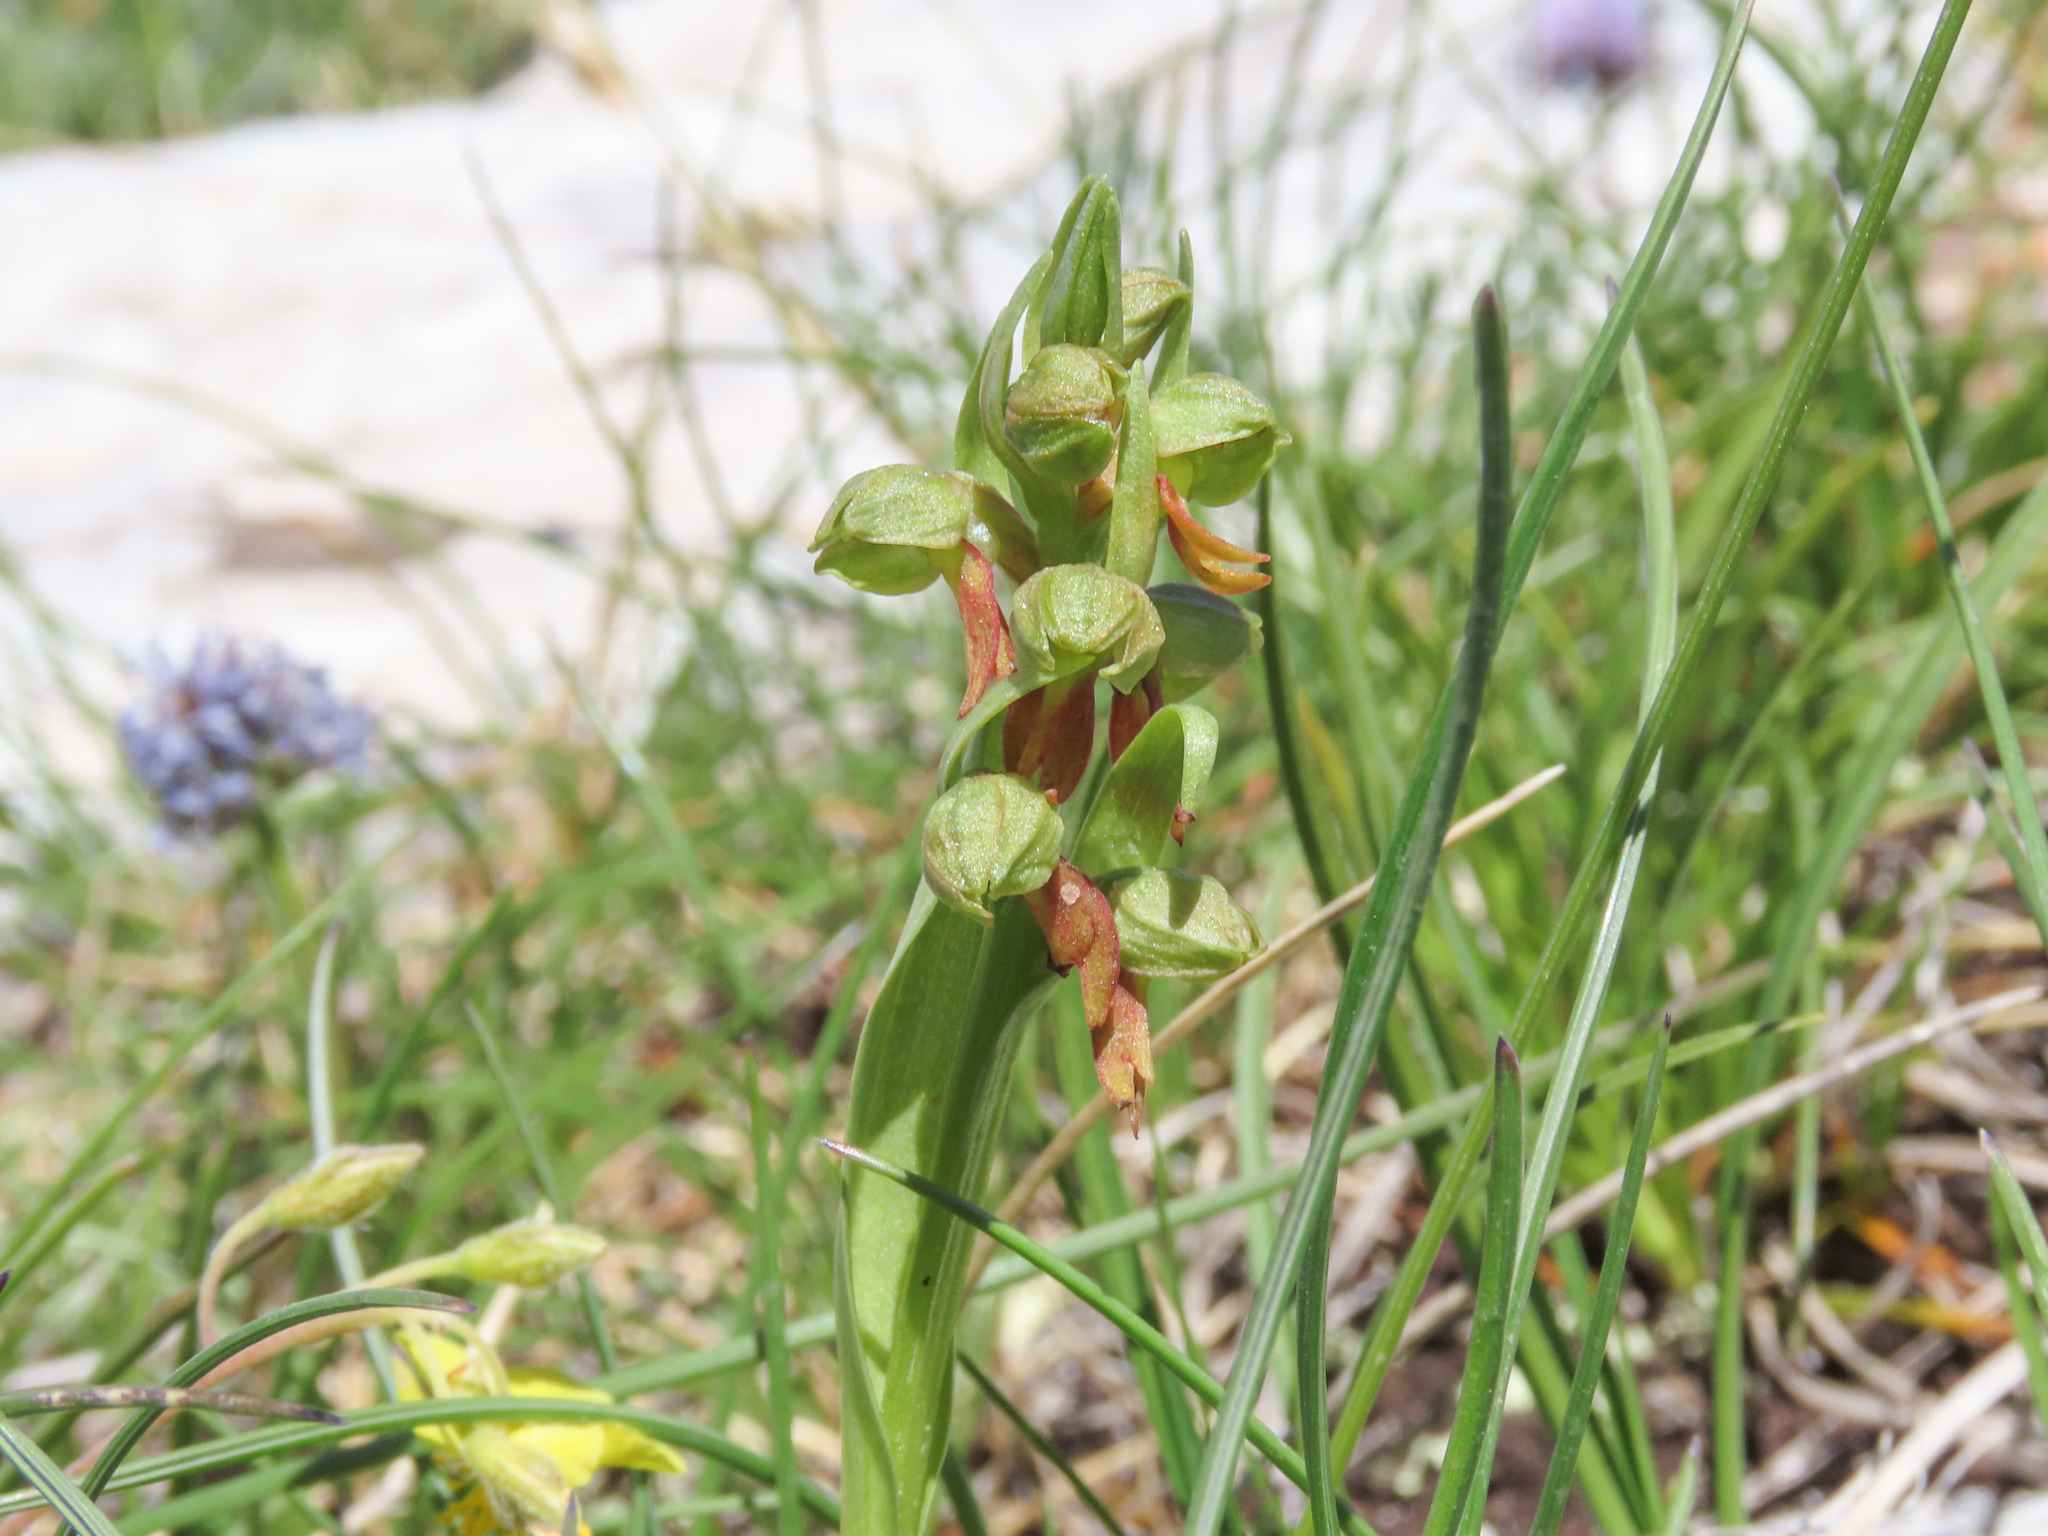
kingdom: Plantae
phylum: Tracheophyta
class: Liliopsida
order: Asparagales
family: Orchidaceae
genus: Dactylorhiza
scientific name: Dactylorhiza viridis
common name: Longbract frog orchid
